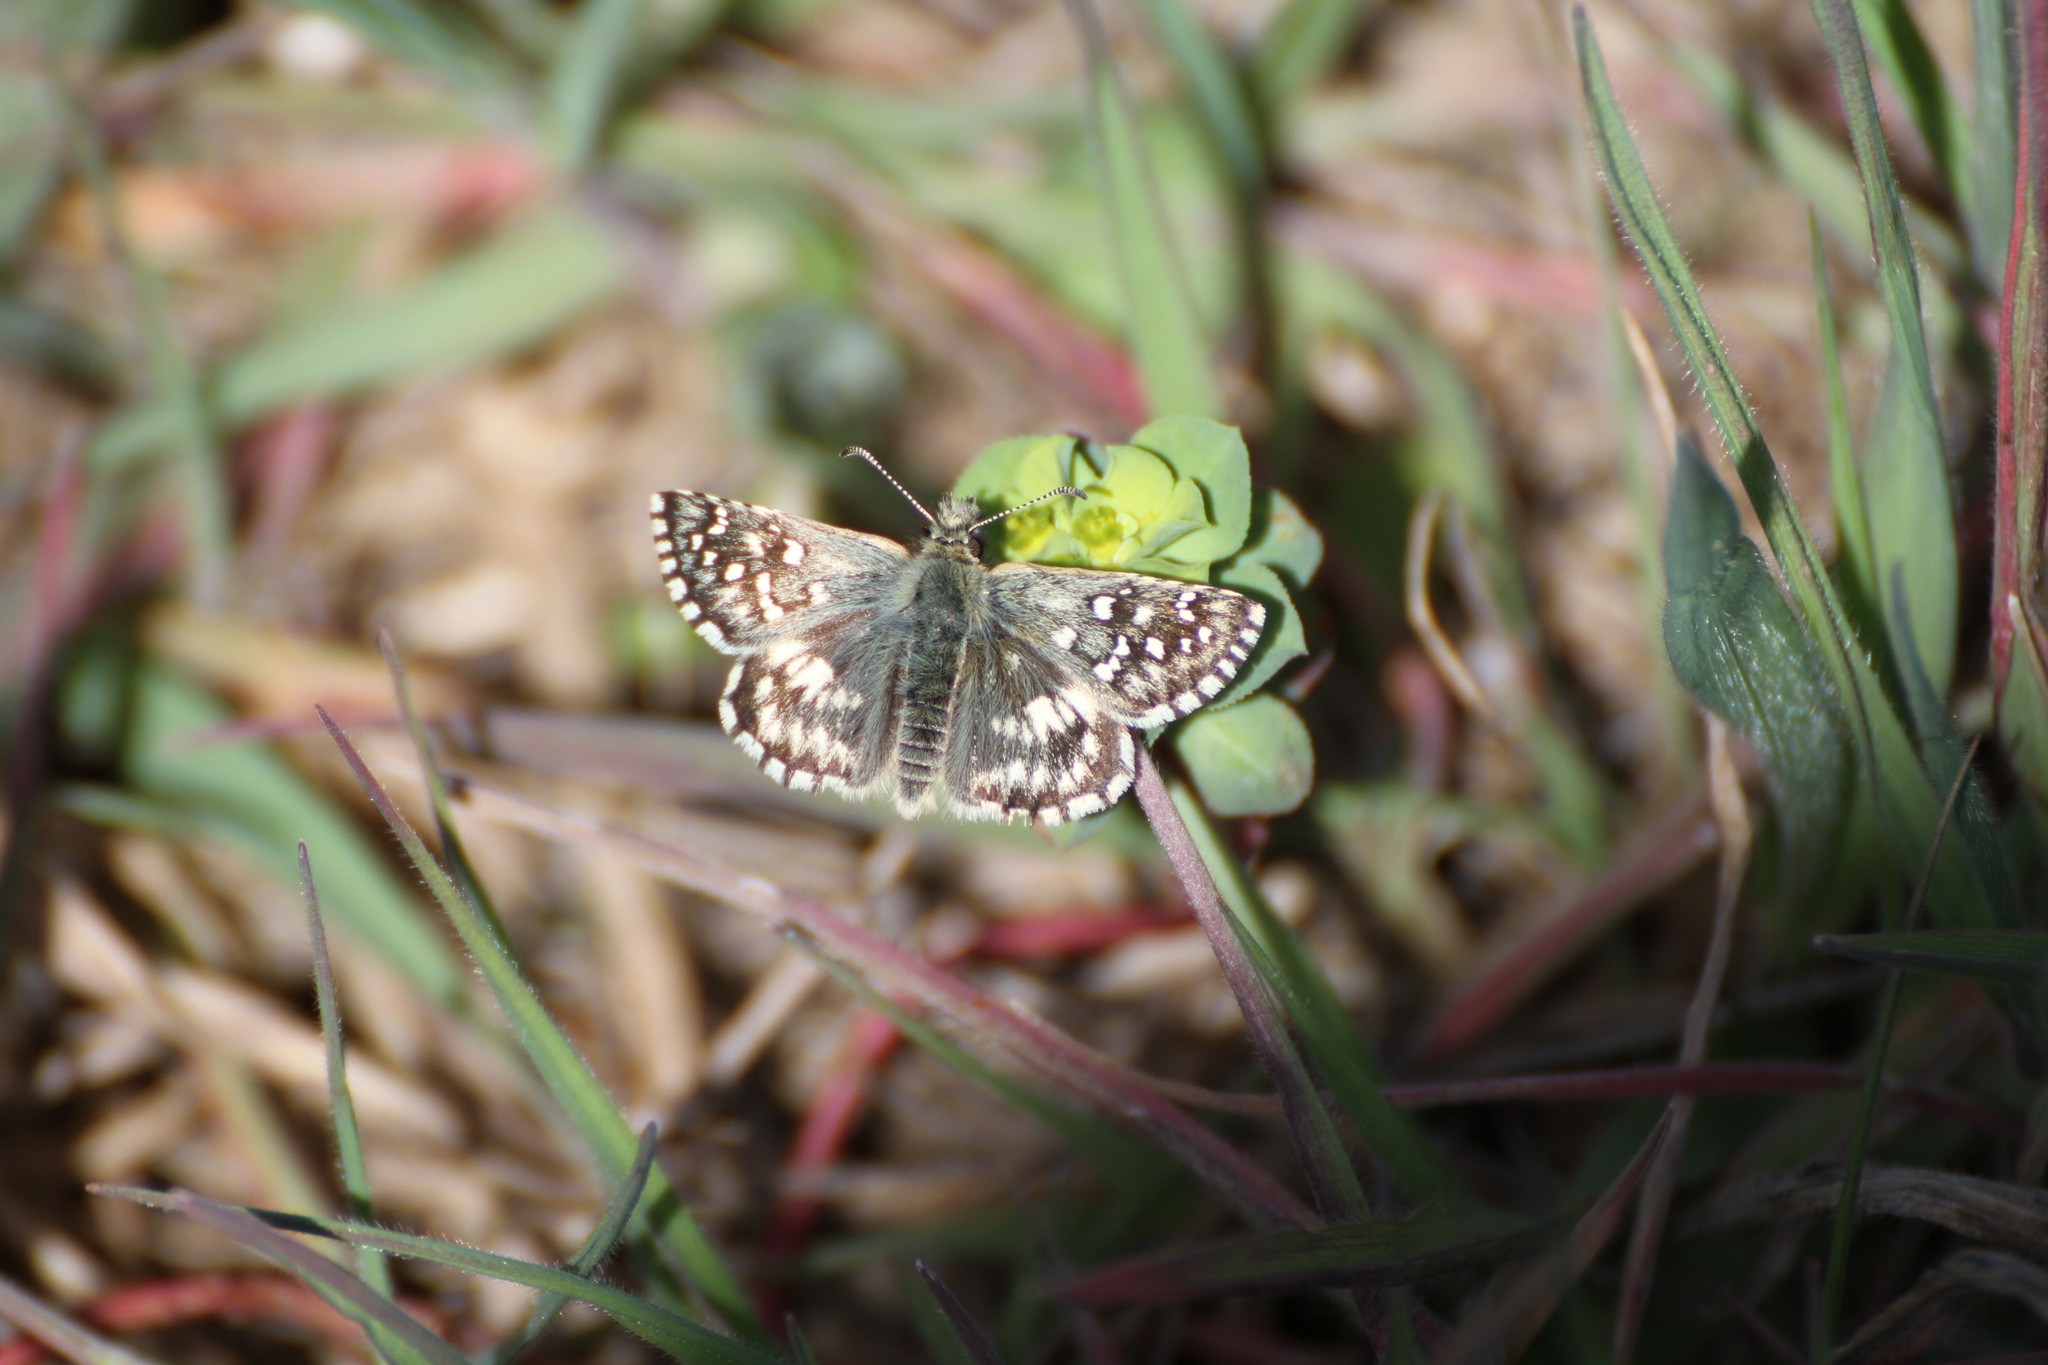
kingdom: Animalia
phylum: Arthropoda
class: Insecta
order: Lepidoptera
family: Hesperiidae
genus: Pyrgus
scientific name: Pyrgus malvoides
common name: Southern grizzled skipper
